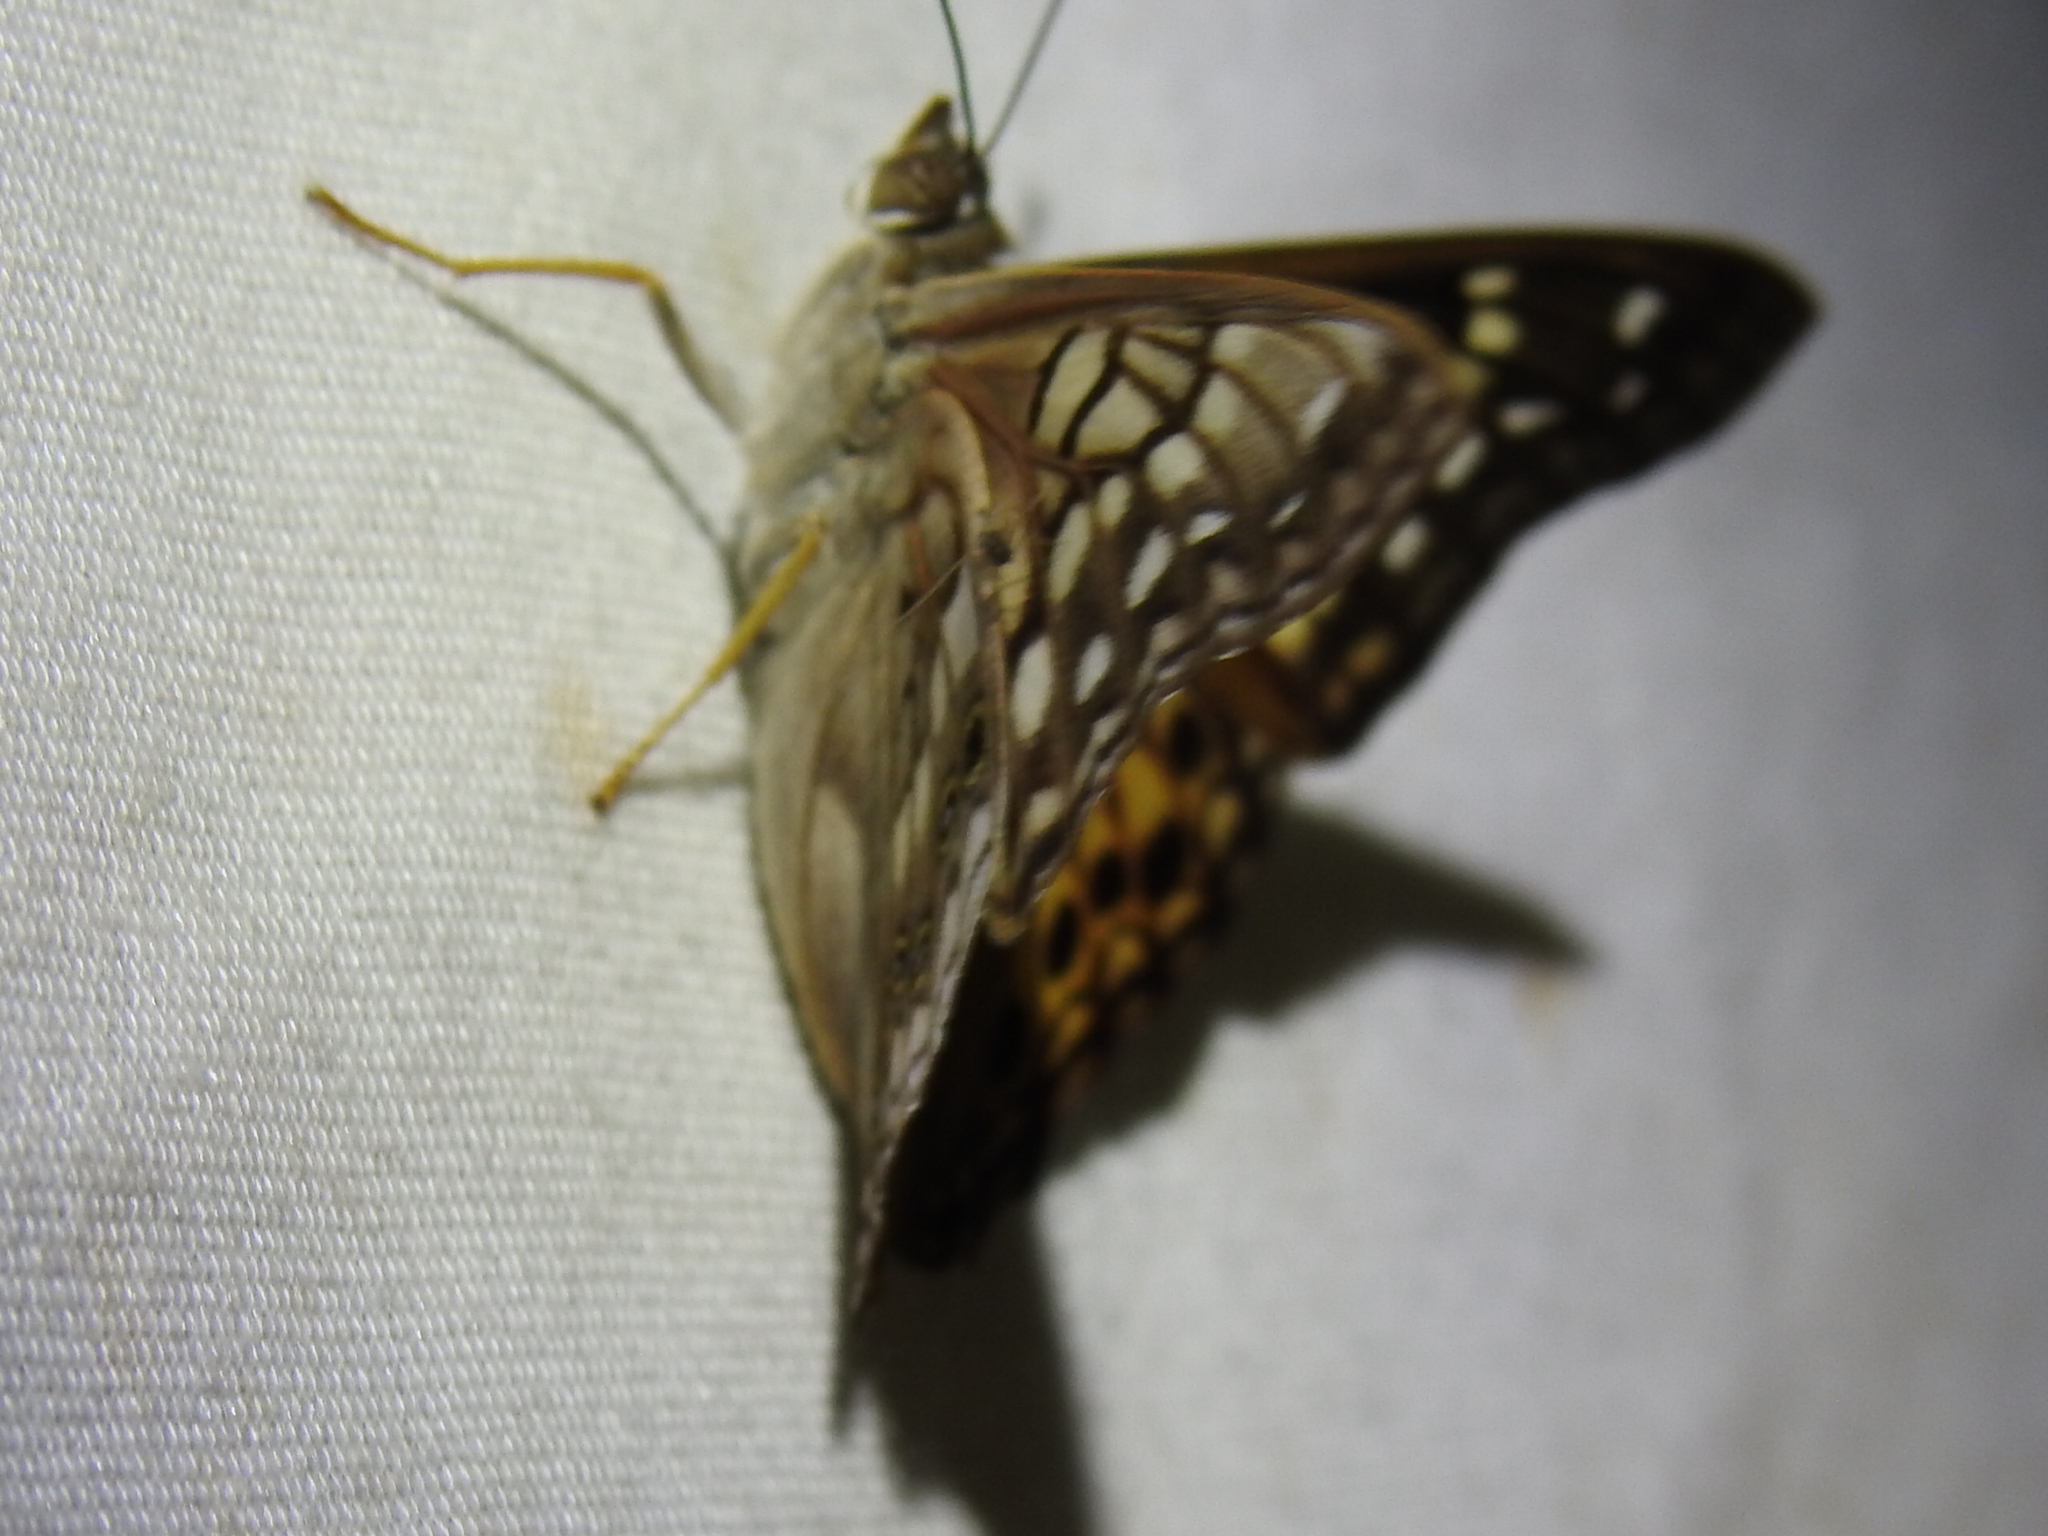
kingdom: Animalia
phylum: Arthropoda
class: Insecta
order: Lepidoptera
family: Nymphalidae
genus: Asterocampa
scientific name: Asterocampa clyton
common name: Tawny emperor
